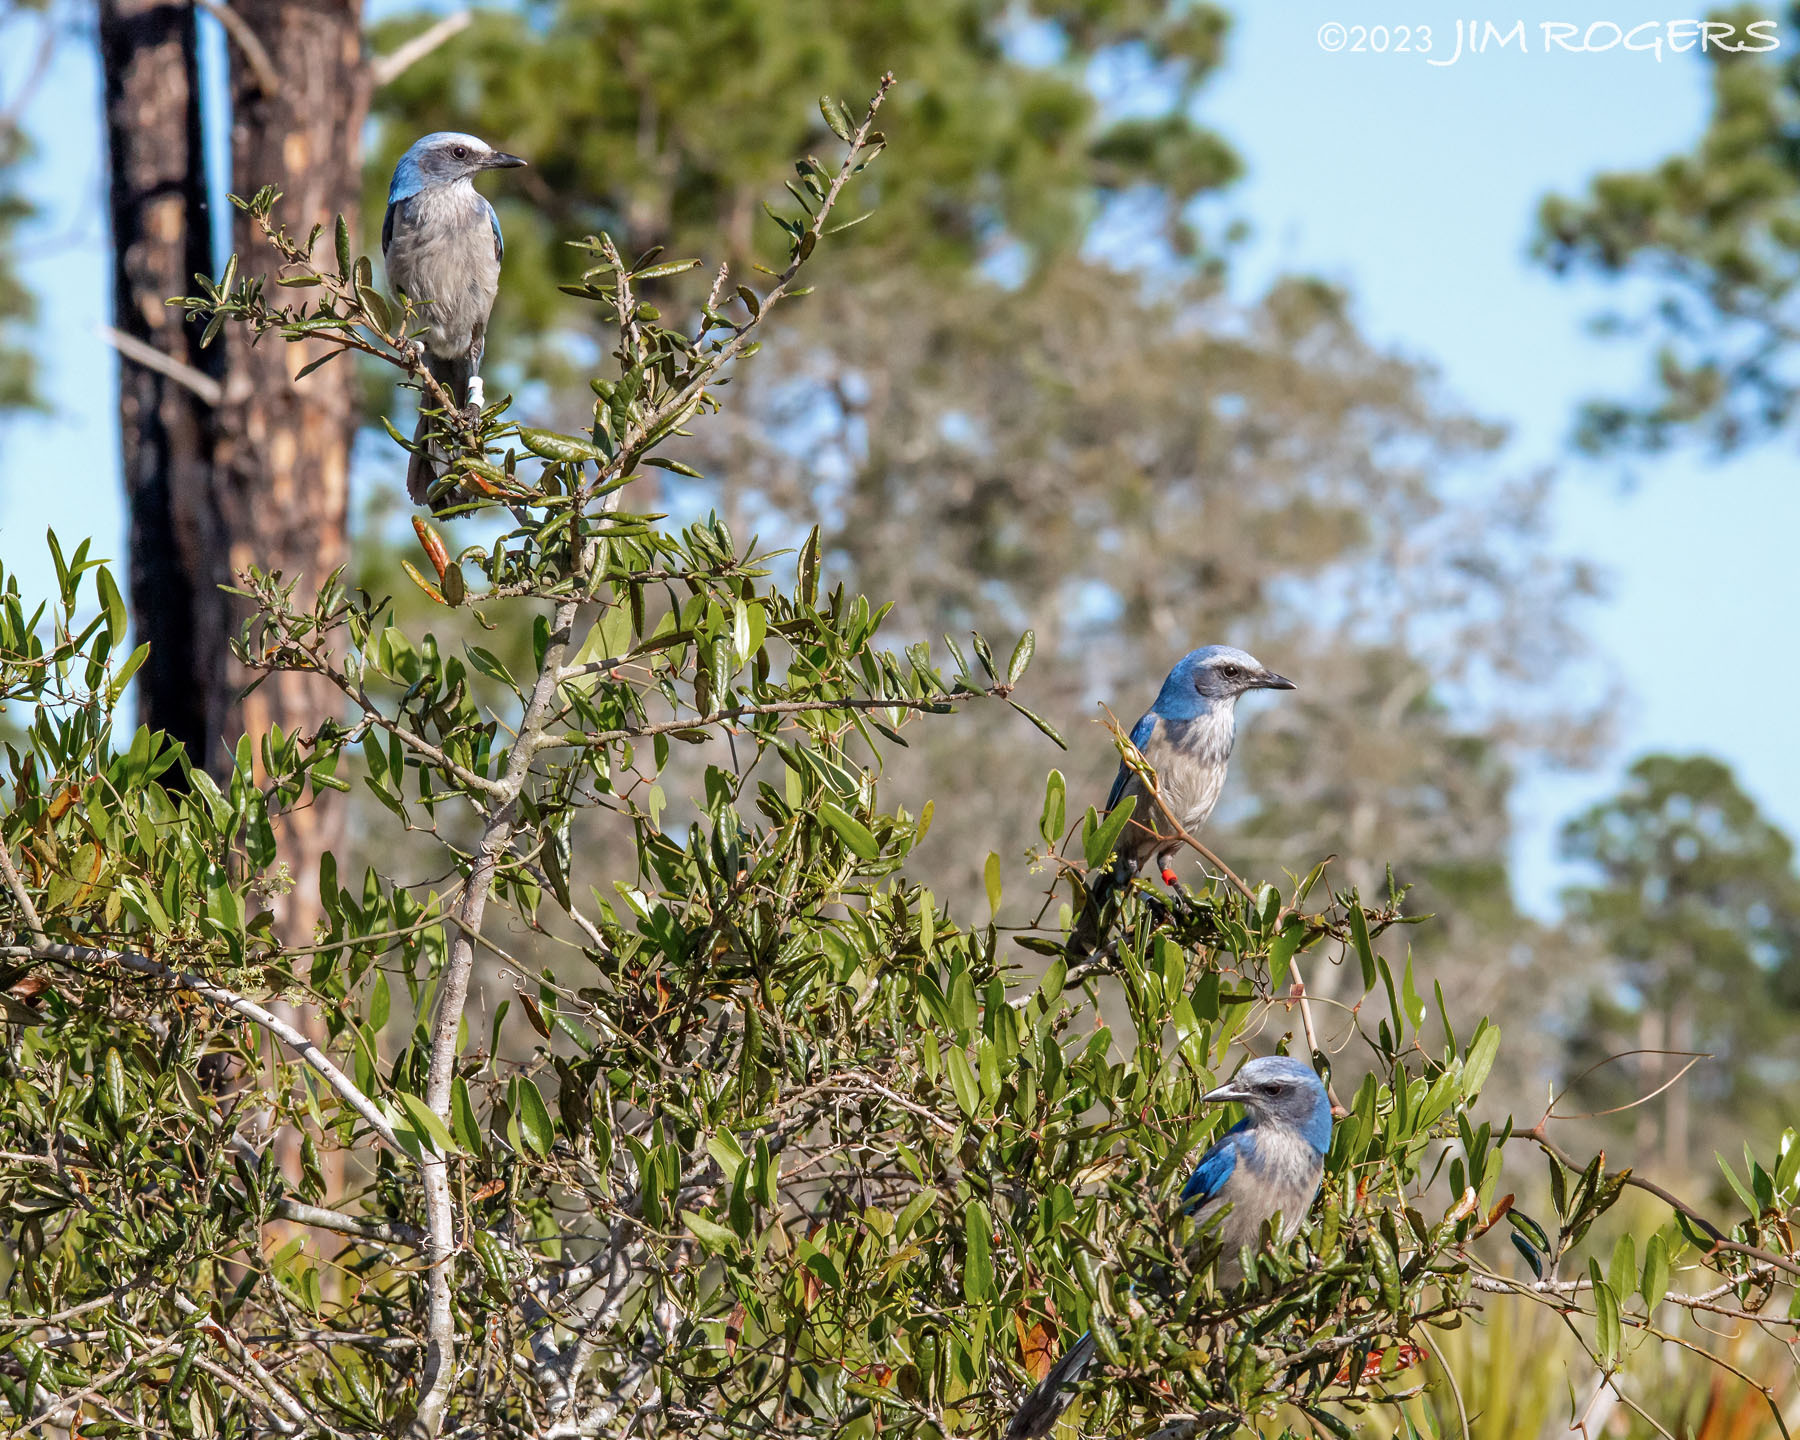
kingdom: Animalia
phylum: Chordata
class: Aves
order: Passeriformes
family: Corvidae
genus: Aphelocoma
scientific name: Aphelocoma coerulescens
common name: Florida scrub jay
